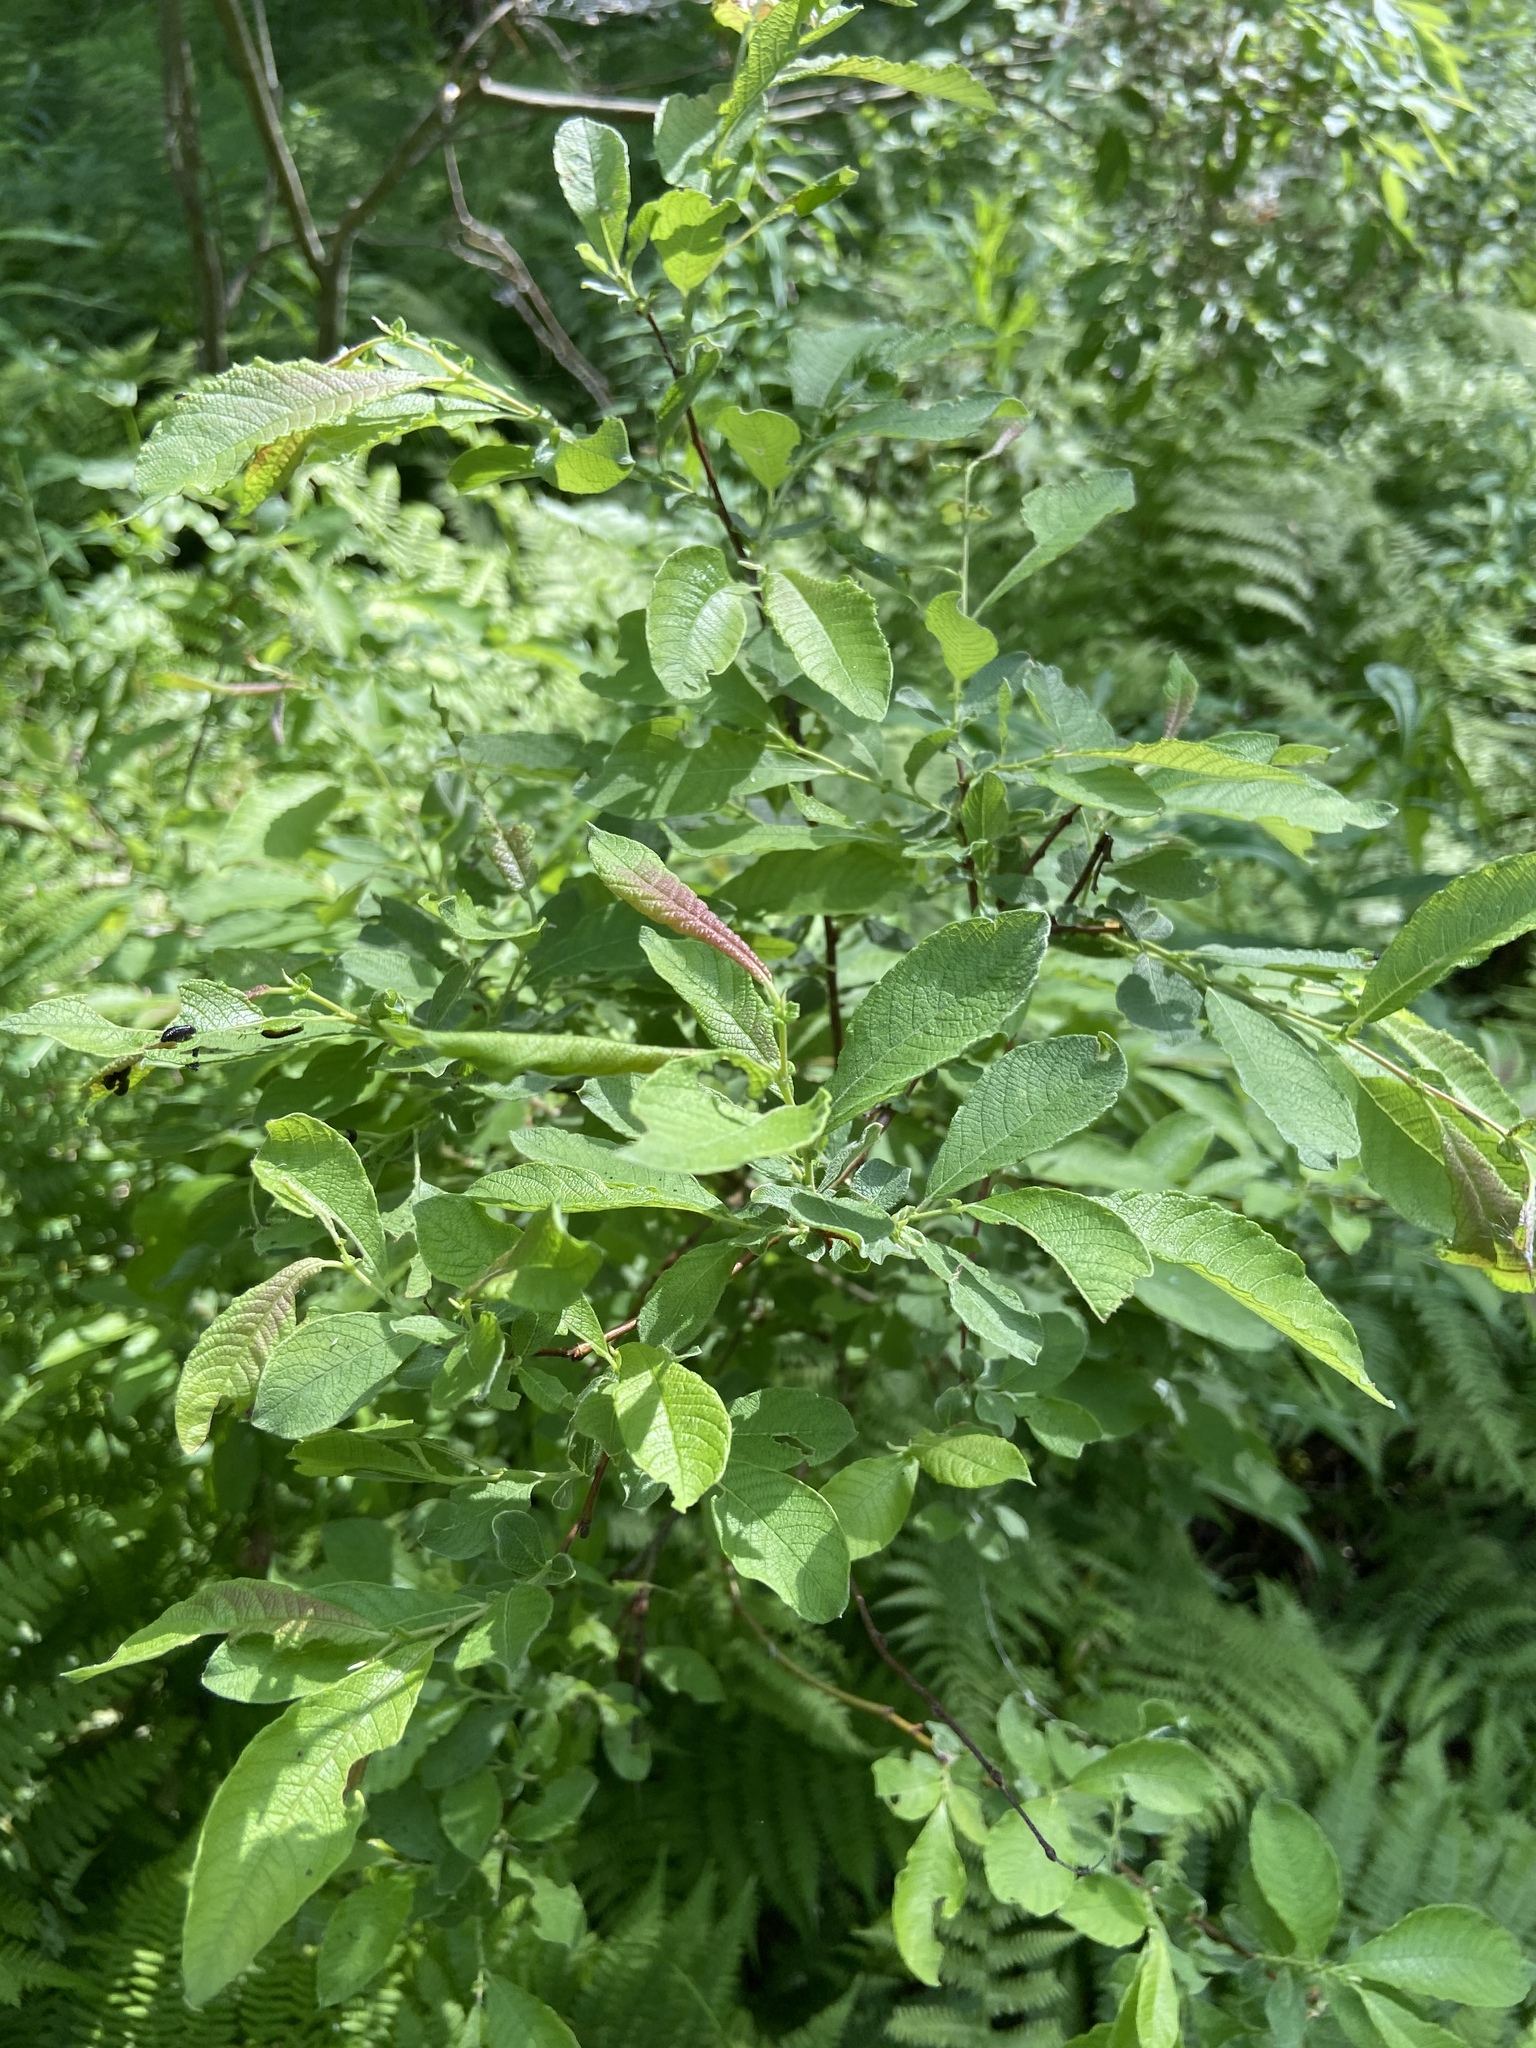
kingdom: Plantae
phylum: Tracheophyta
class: Magnoliopsida
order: Malpighiales
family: Salicaceae
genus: Salix
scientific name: Salix aurita
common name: Eared willow
